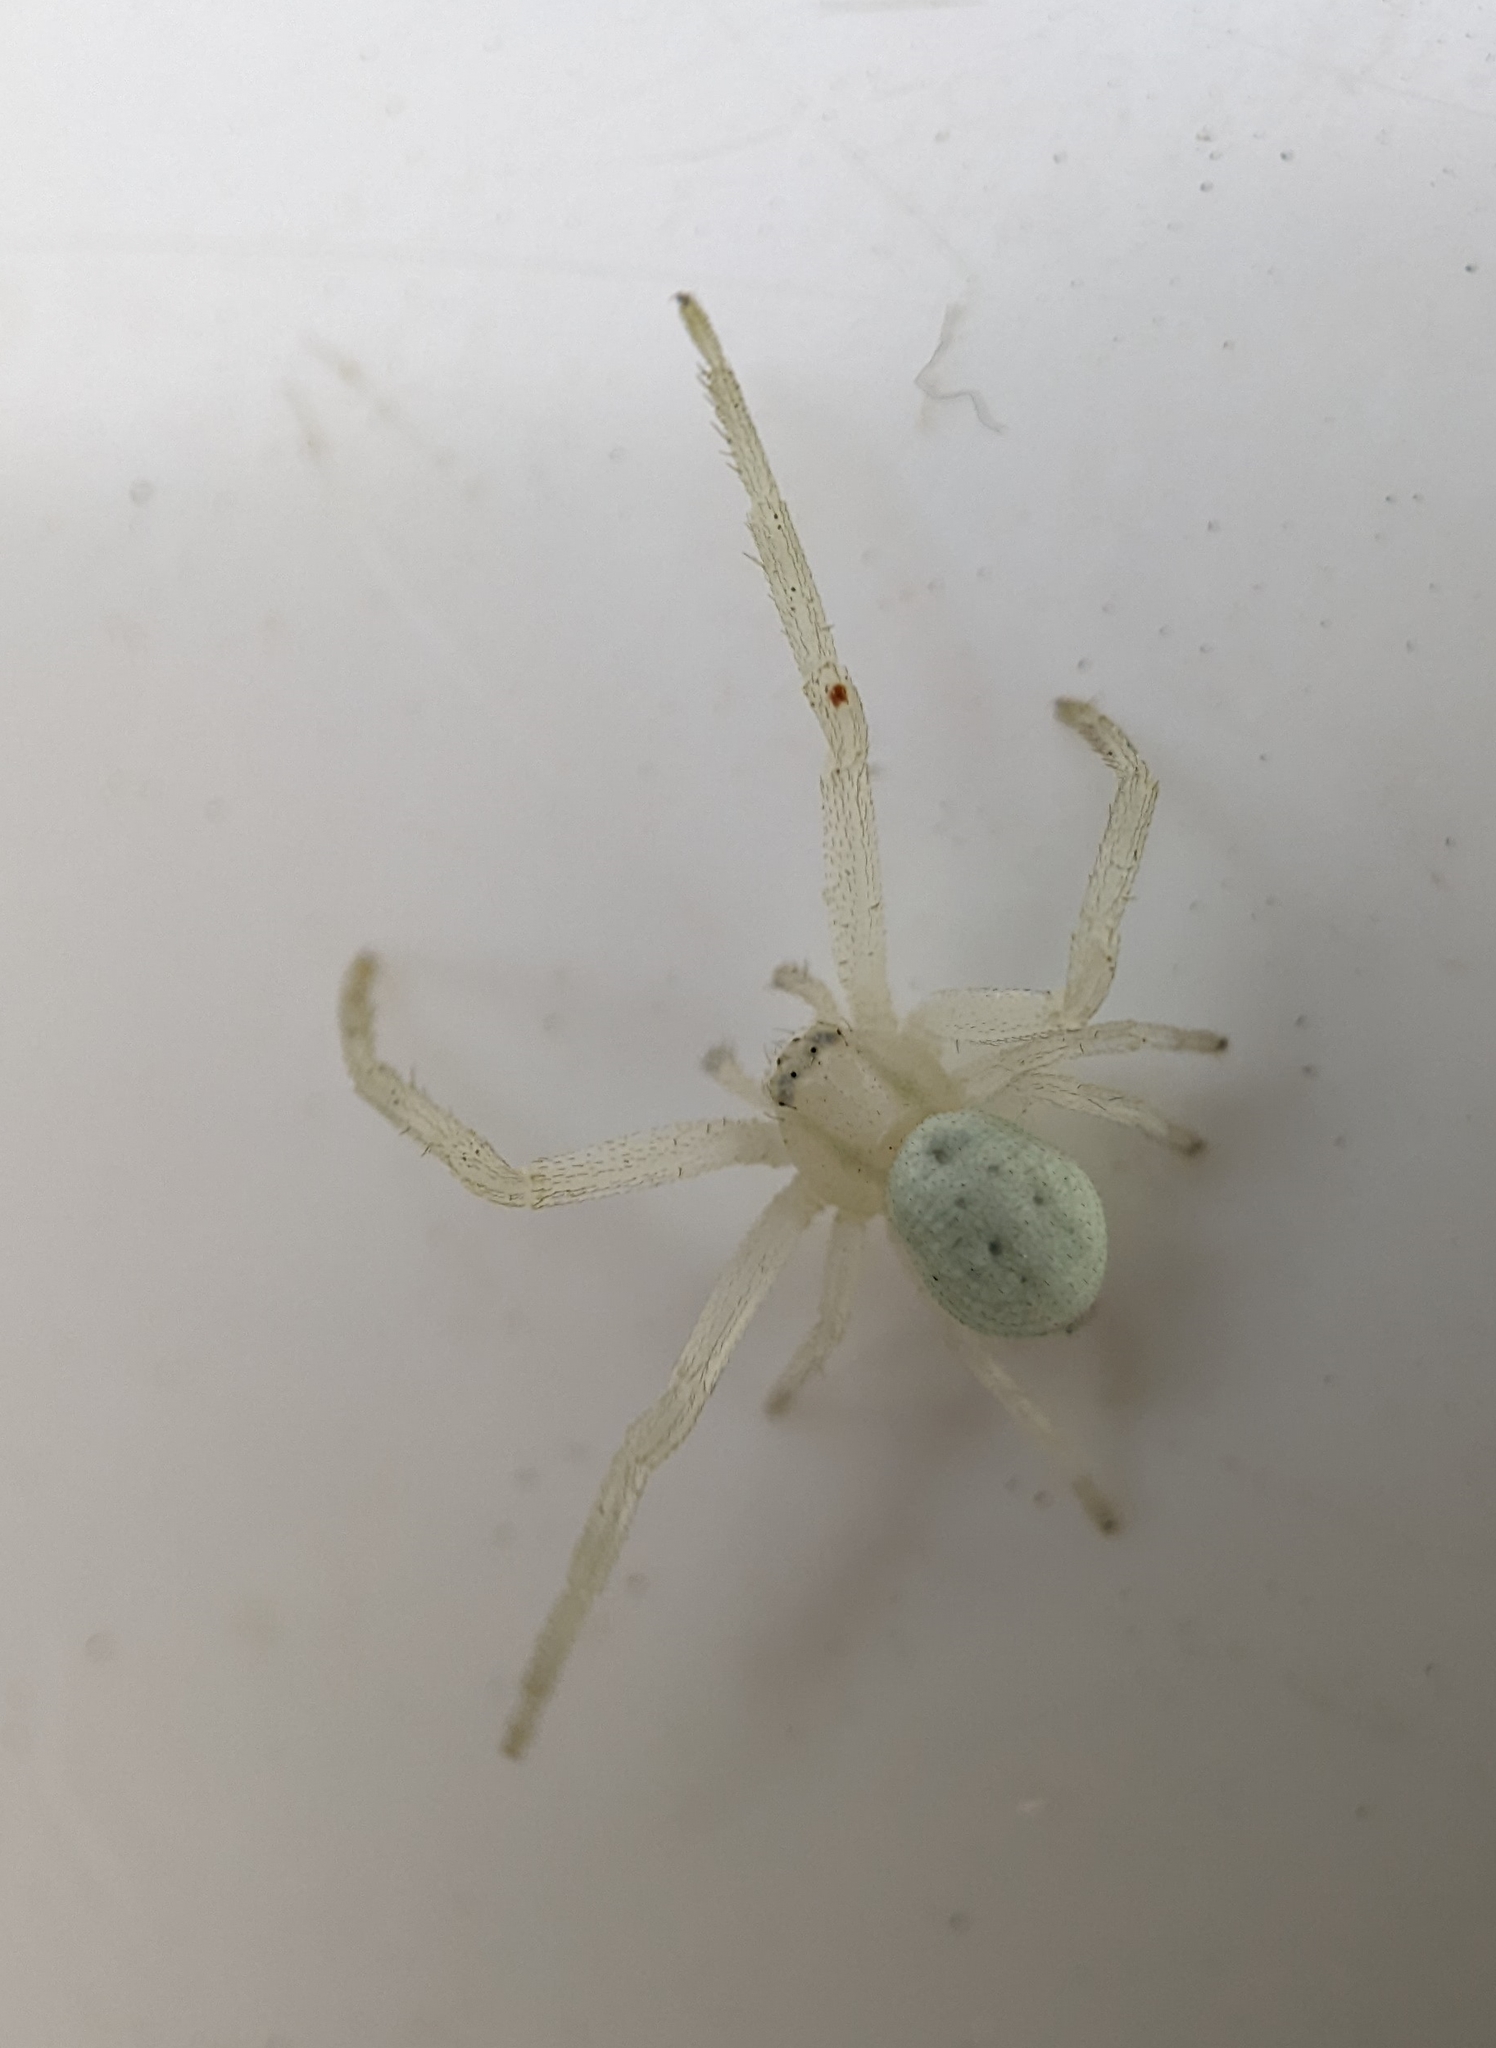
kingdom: Animalia
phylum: Arthropoda
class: Arachnida
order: Araneae
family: Thomisidae
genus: Misumena
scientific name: Misumena vatia
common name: Goldenrod crab spider
